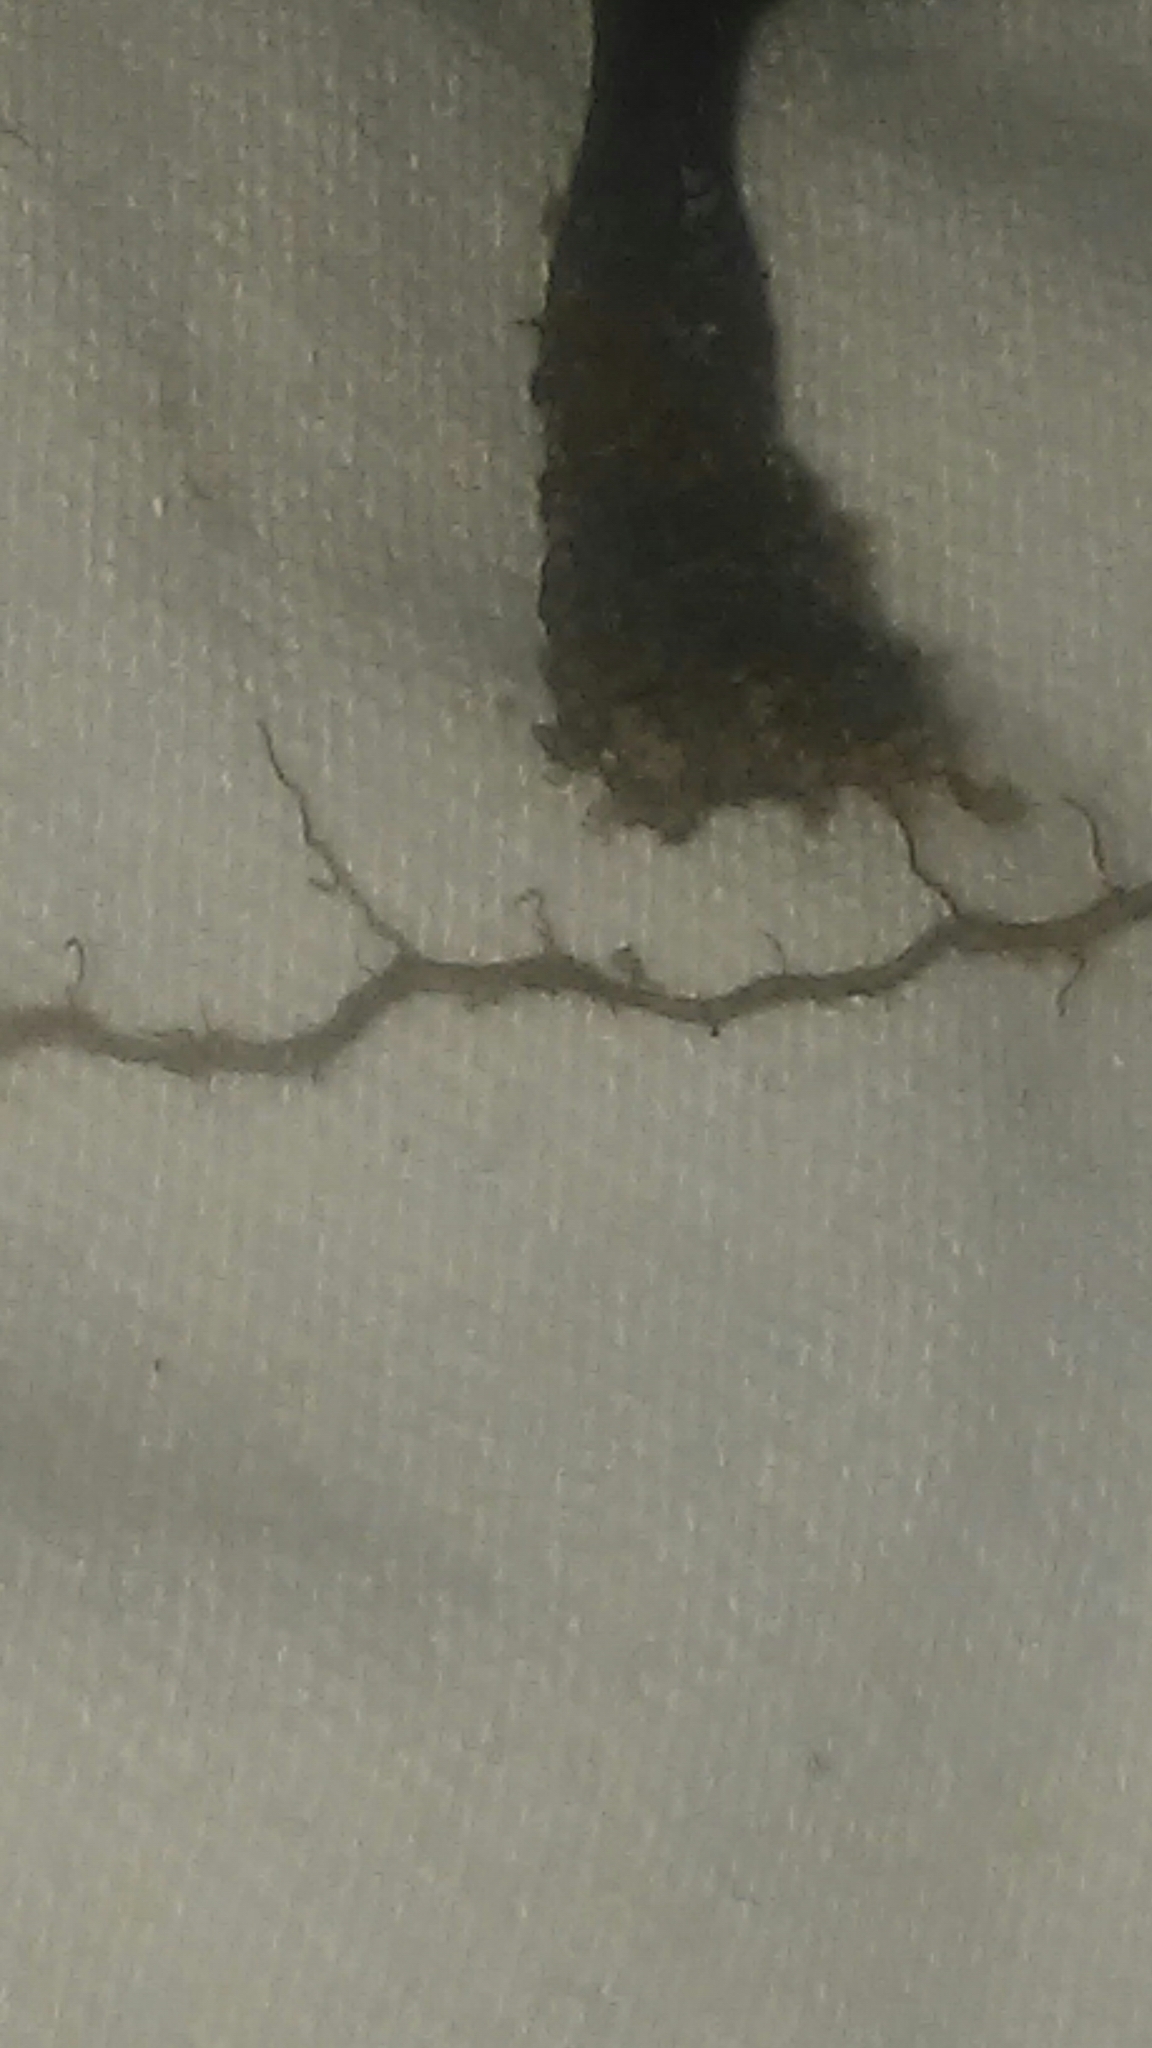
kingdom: Fungi
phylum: Ascomycota
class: Pezizomycetes
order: Pezizales
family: Helvellaceae
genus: Helvella
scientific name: Helvella corium
